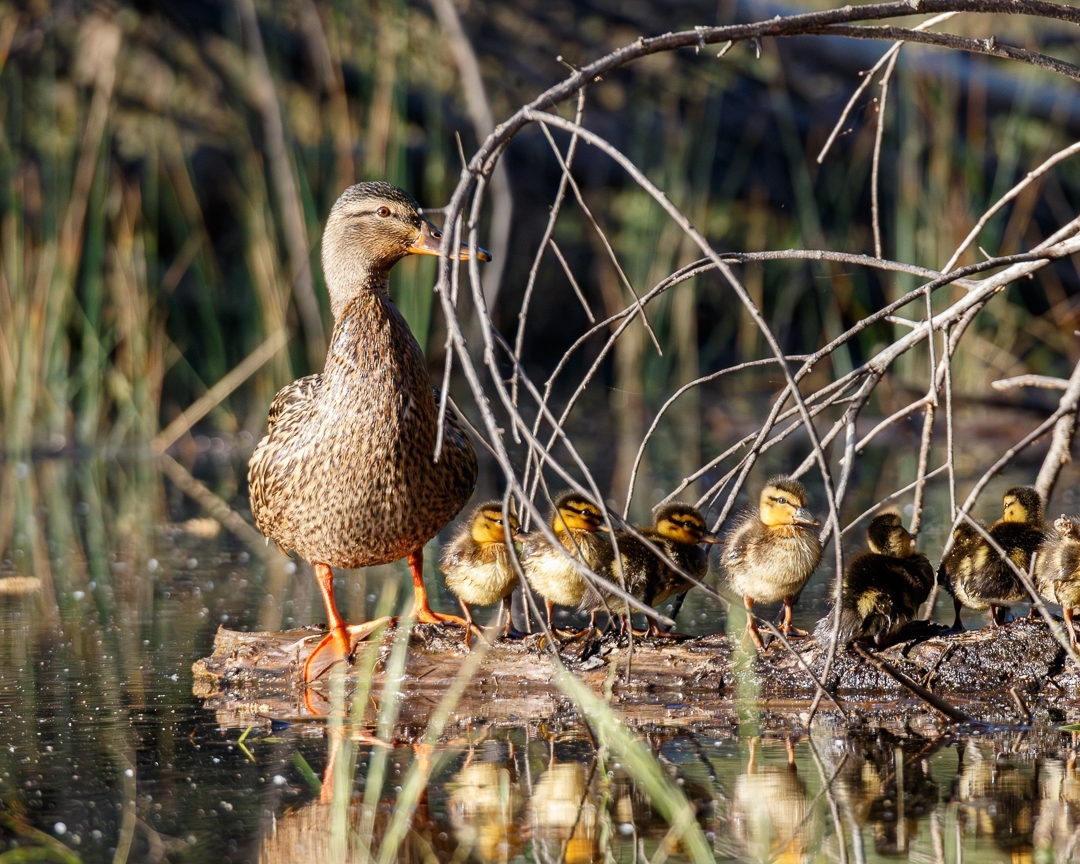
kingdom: Animalia
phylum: Chordata
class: Aves
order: Anseriformes
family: Anatidae
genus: Anas
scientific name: Anas platyrhynchos
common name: Mallard
